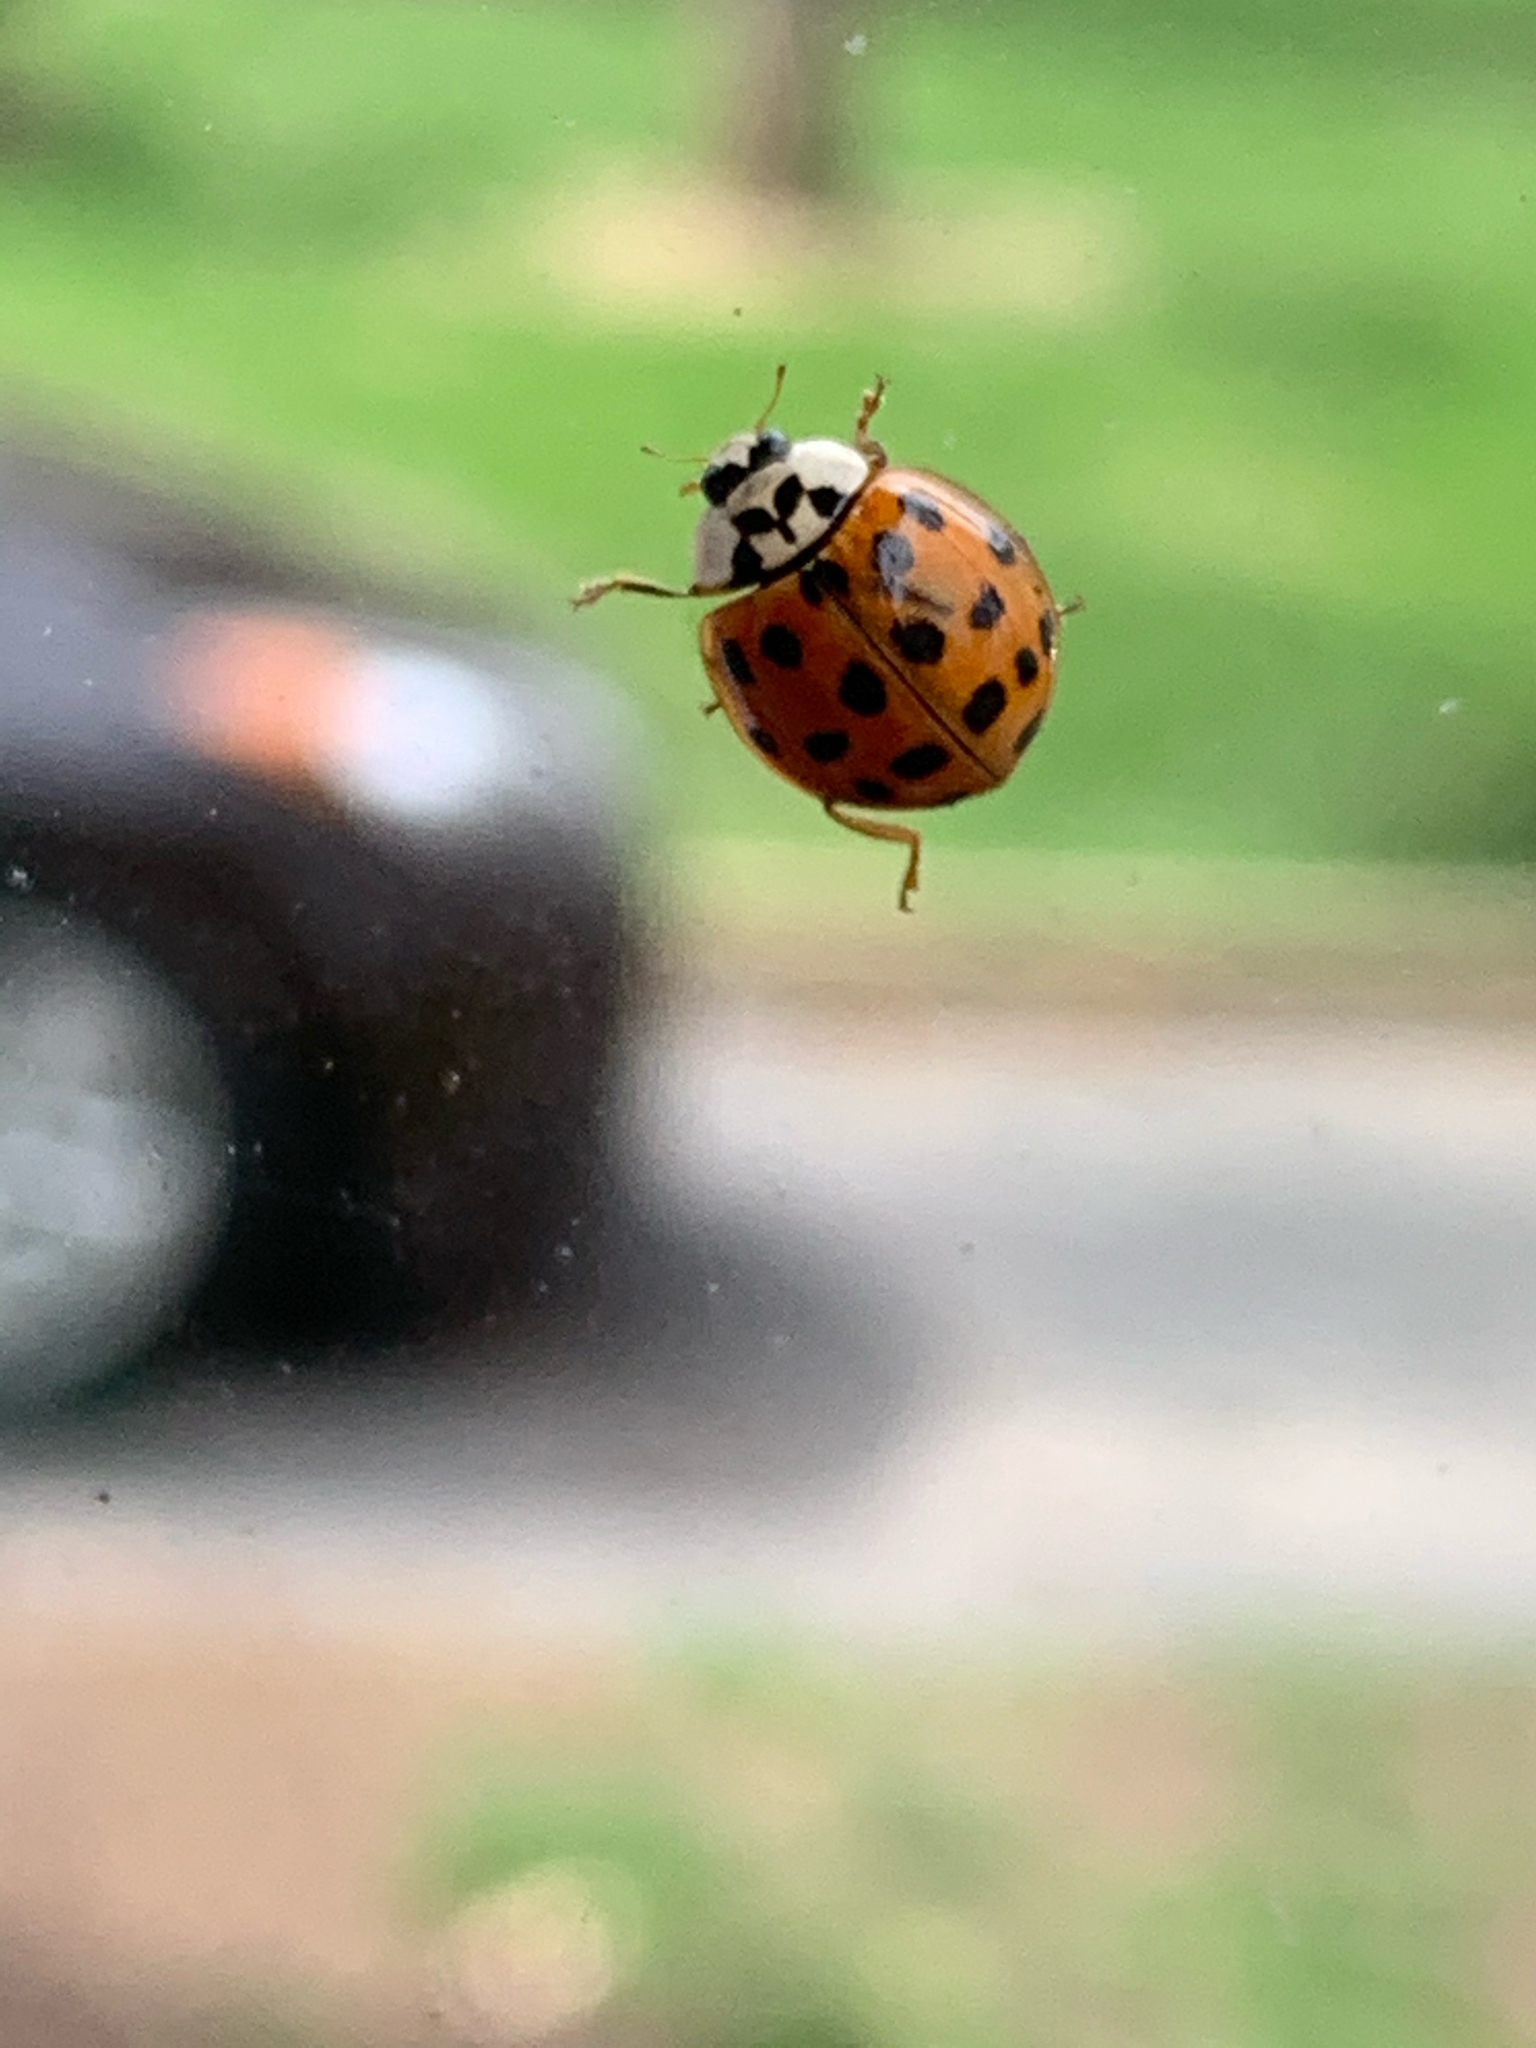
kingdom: Animalia
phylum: Arthropoda
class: Insecta
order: Coleoptera
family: Coccinellidae
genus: Harmonia
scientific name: Harmonia axyridis
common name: Harlequin ladybird
